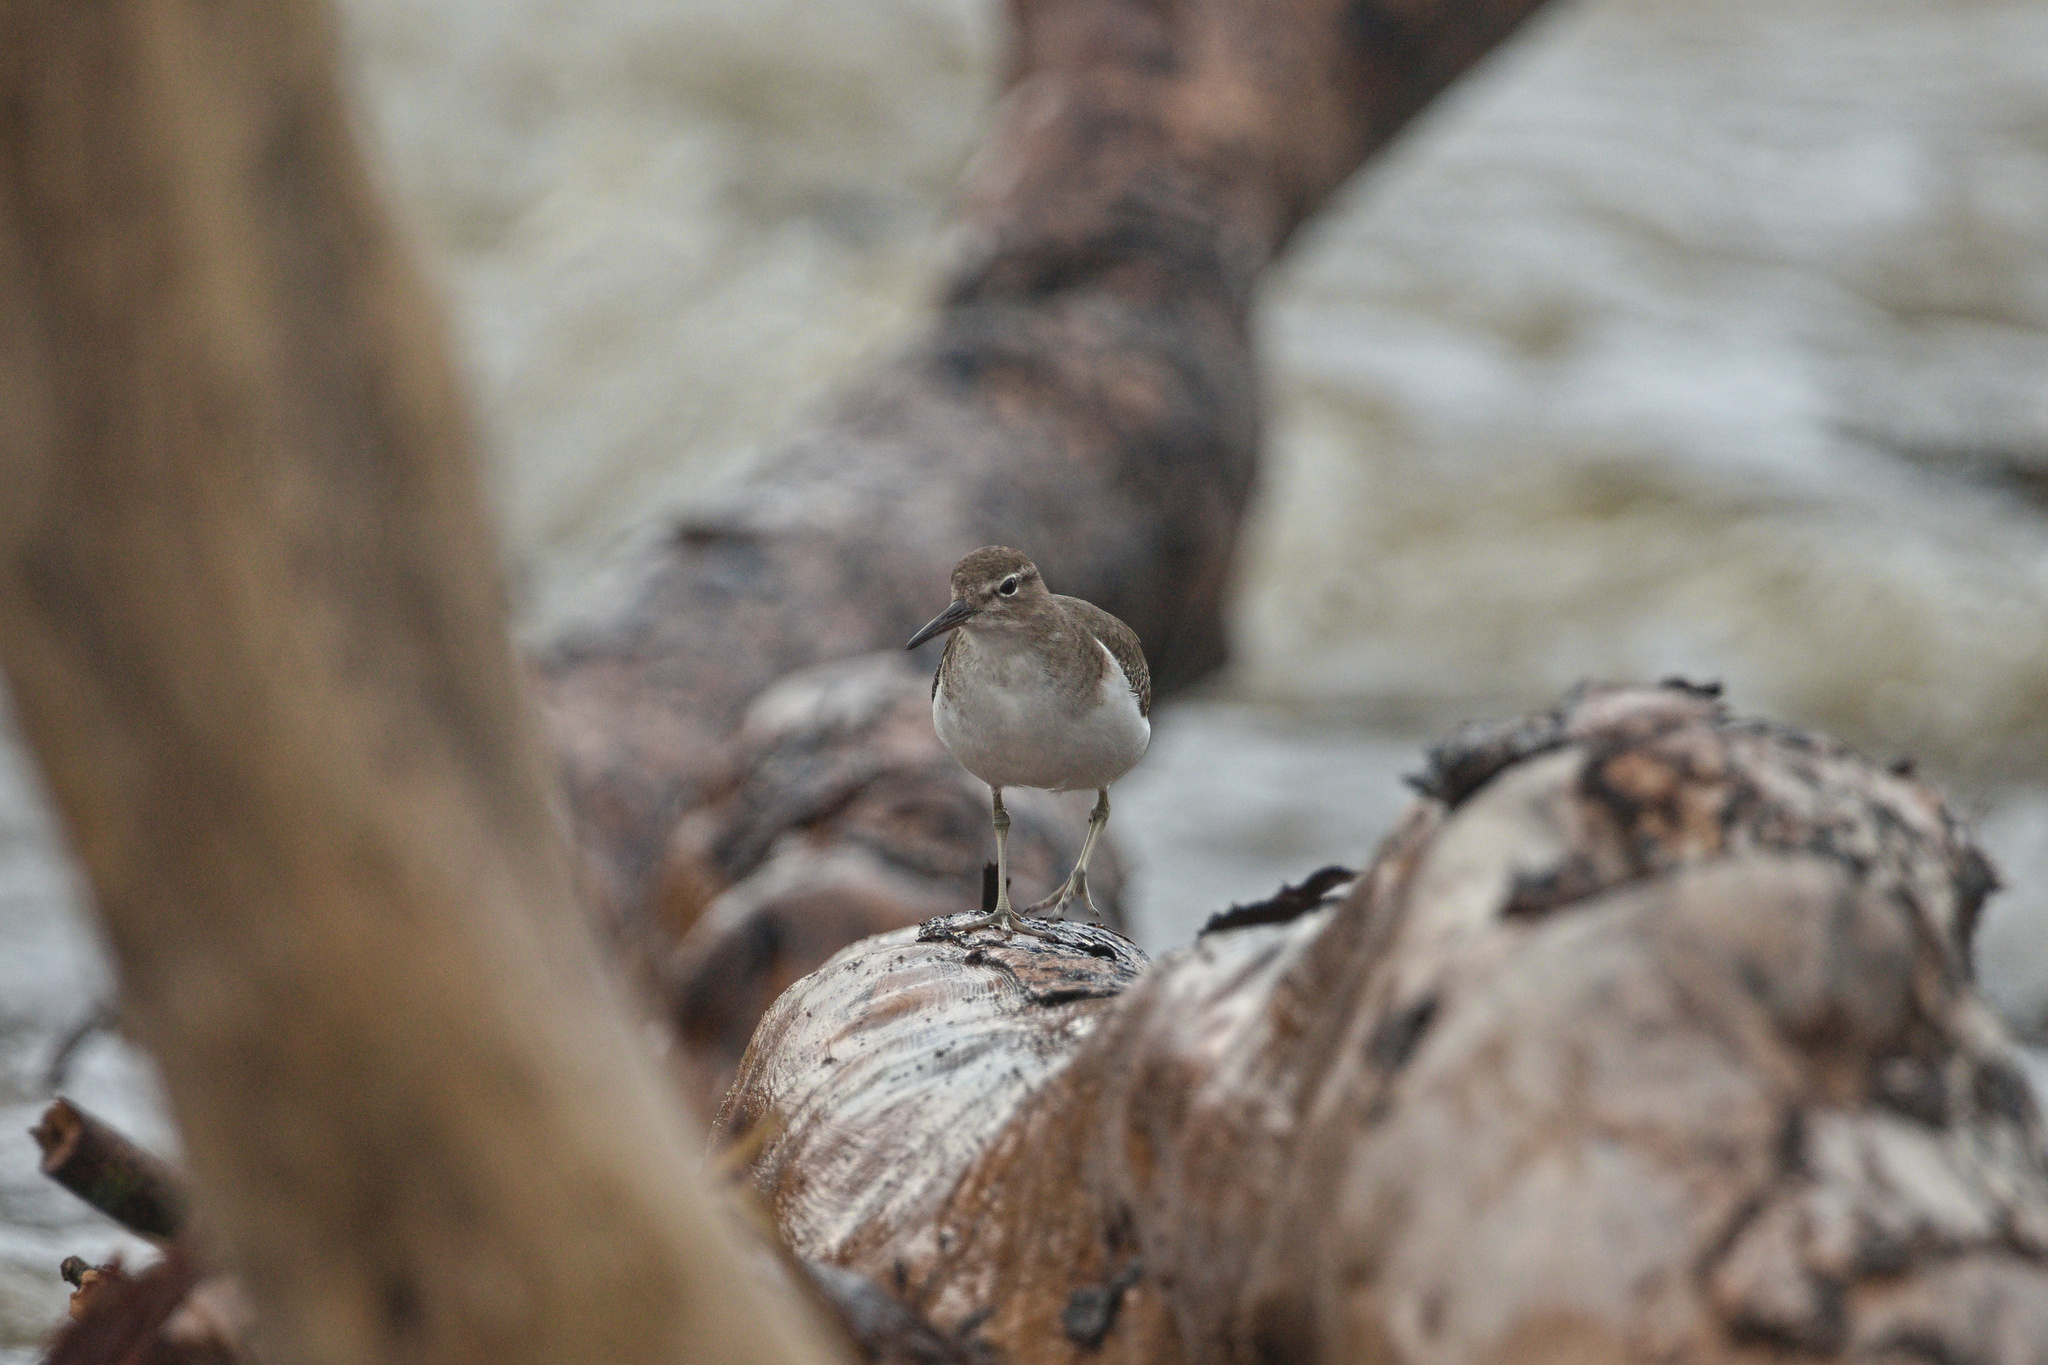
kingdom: Animalia
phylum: Chordata
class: Aves
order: Charadriiformes
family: Scolopacidae
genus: Actitis
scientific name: Actitis macularius
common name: Spotted sandpiper
